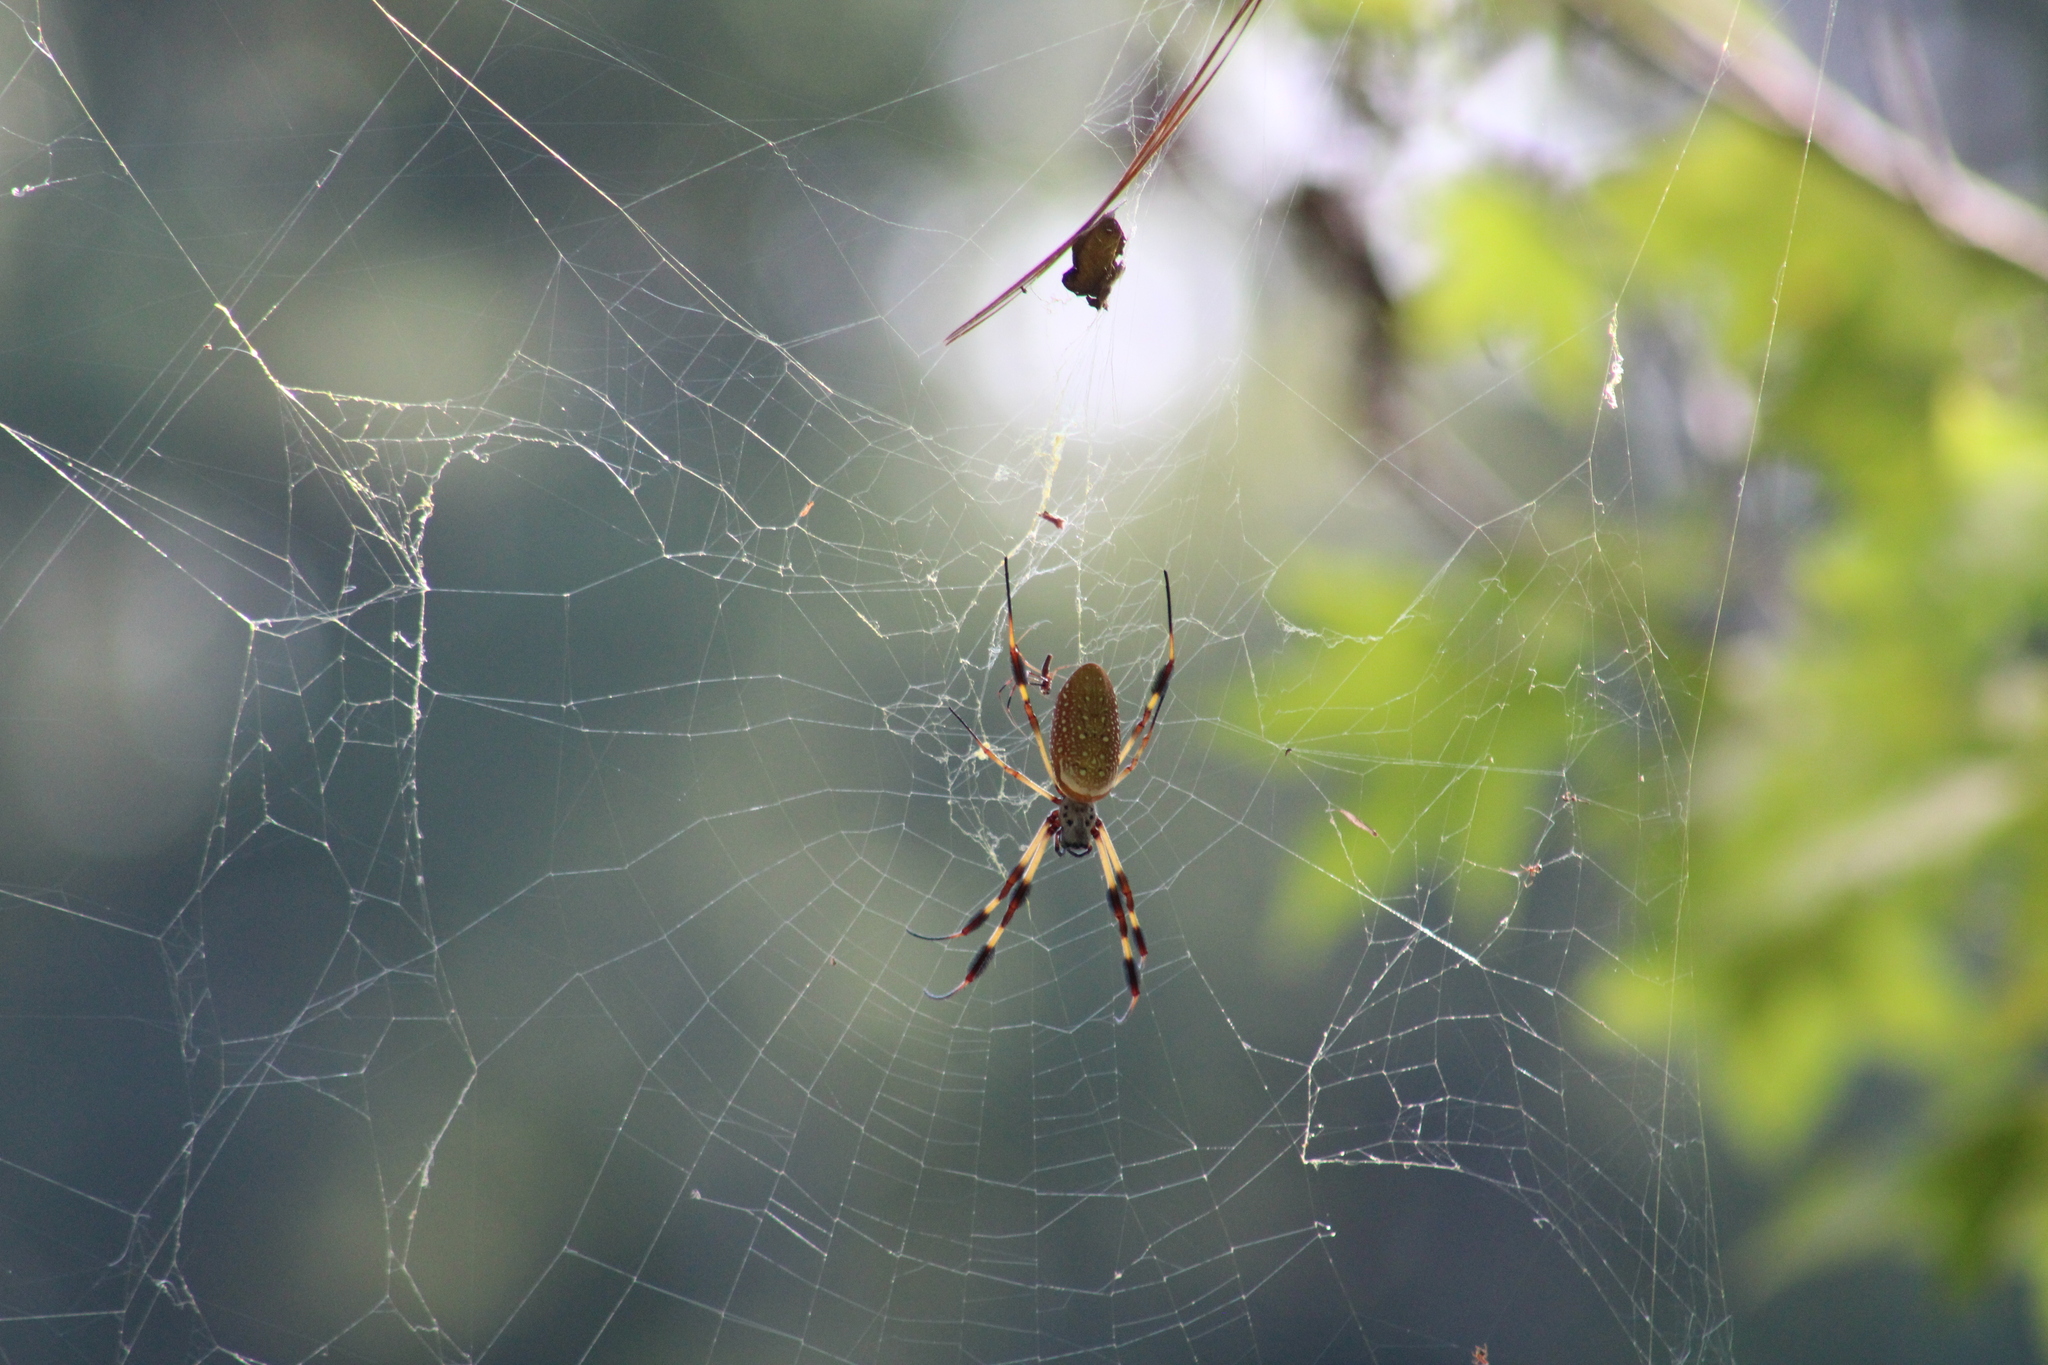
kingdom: Animalia
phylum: Arthropoda
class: Arachnida
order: Araneae
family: Araneidae
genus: Trichonephila
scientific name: Trichonephila clavipes
